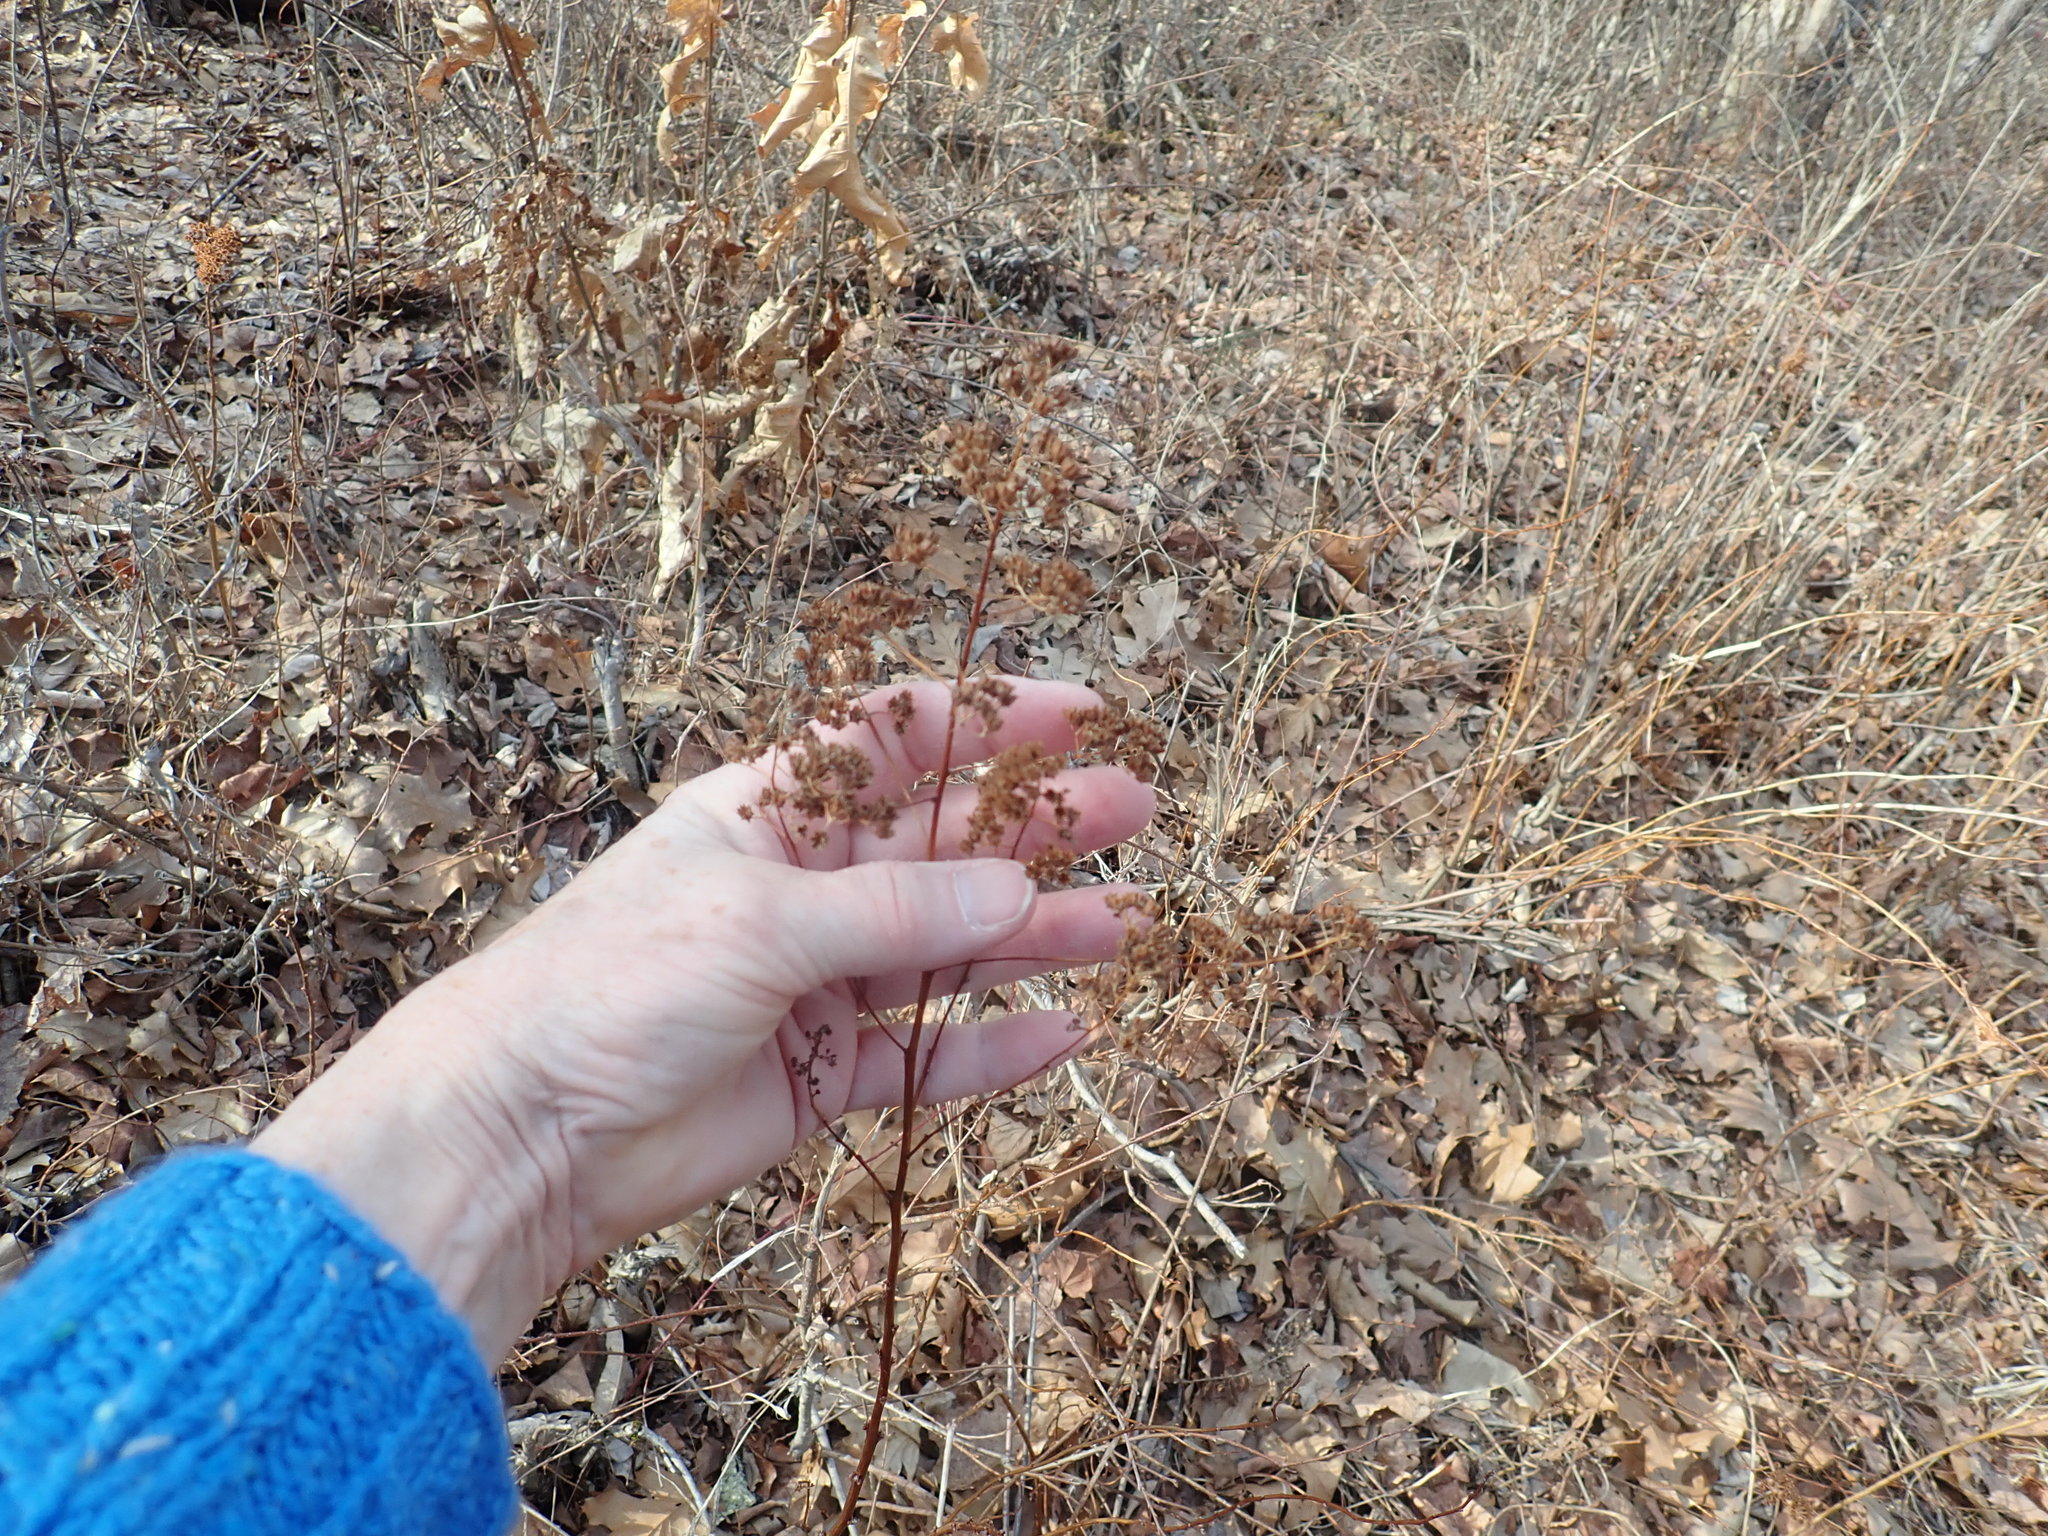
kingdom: Plantae
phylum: Tracheophyta
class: Magnoliopsida
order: Rosales
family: Rosaceae
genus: Spiraea
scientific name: Spiraea alba
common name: Pale bridewort
